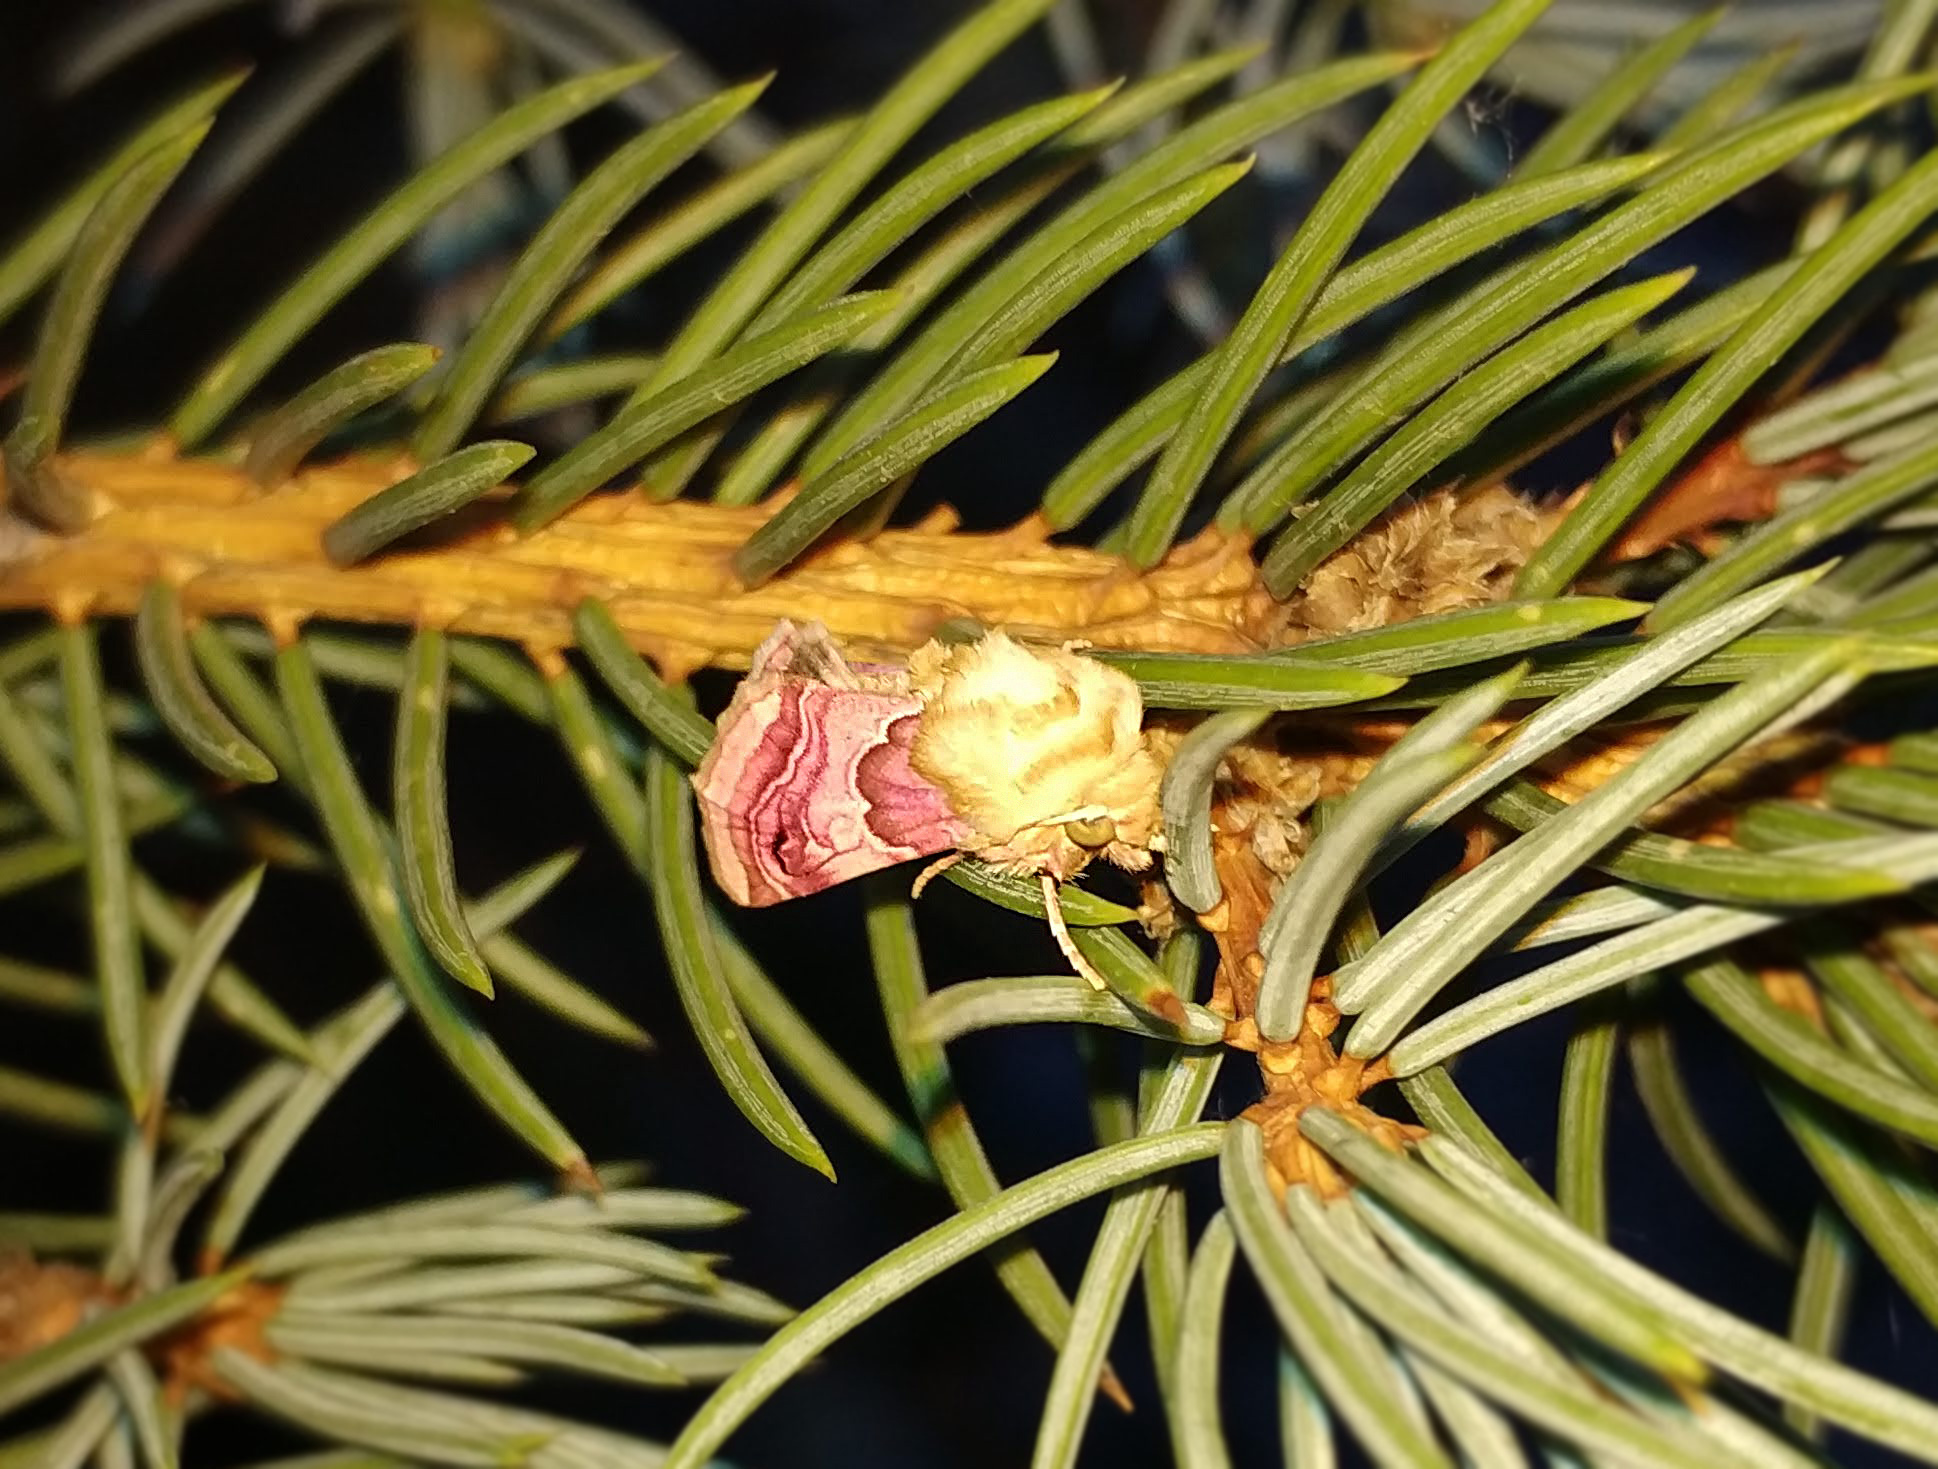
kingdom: Animalia
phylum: Arthropoda
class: Insecta
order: Lepidoptera
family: Noctuidae
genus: Periphanes
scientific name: Periphanes delphinii
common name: Pease blossom
